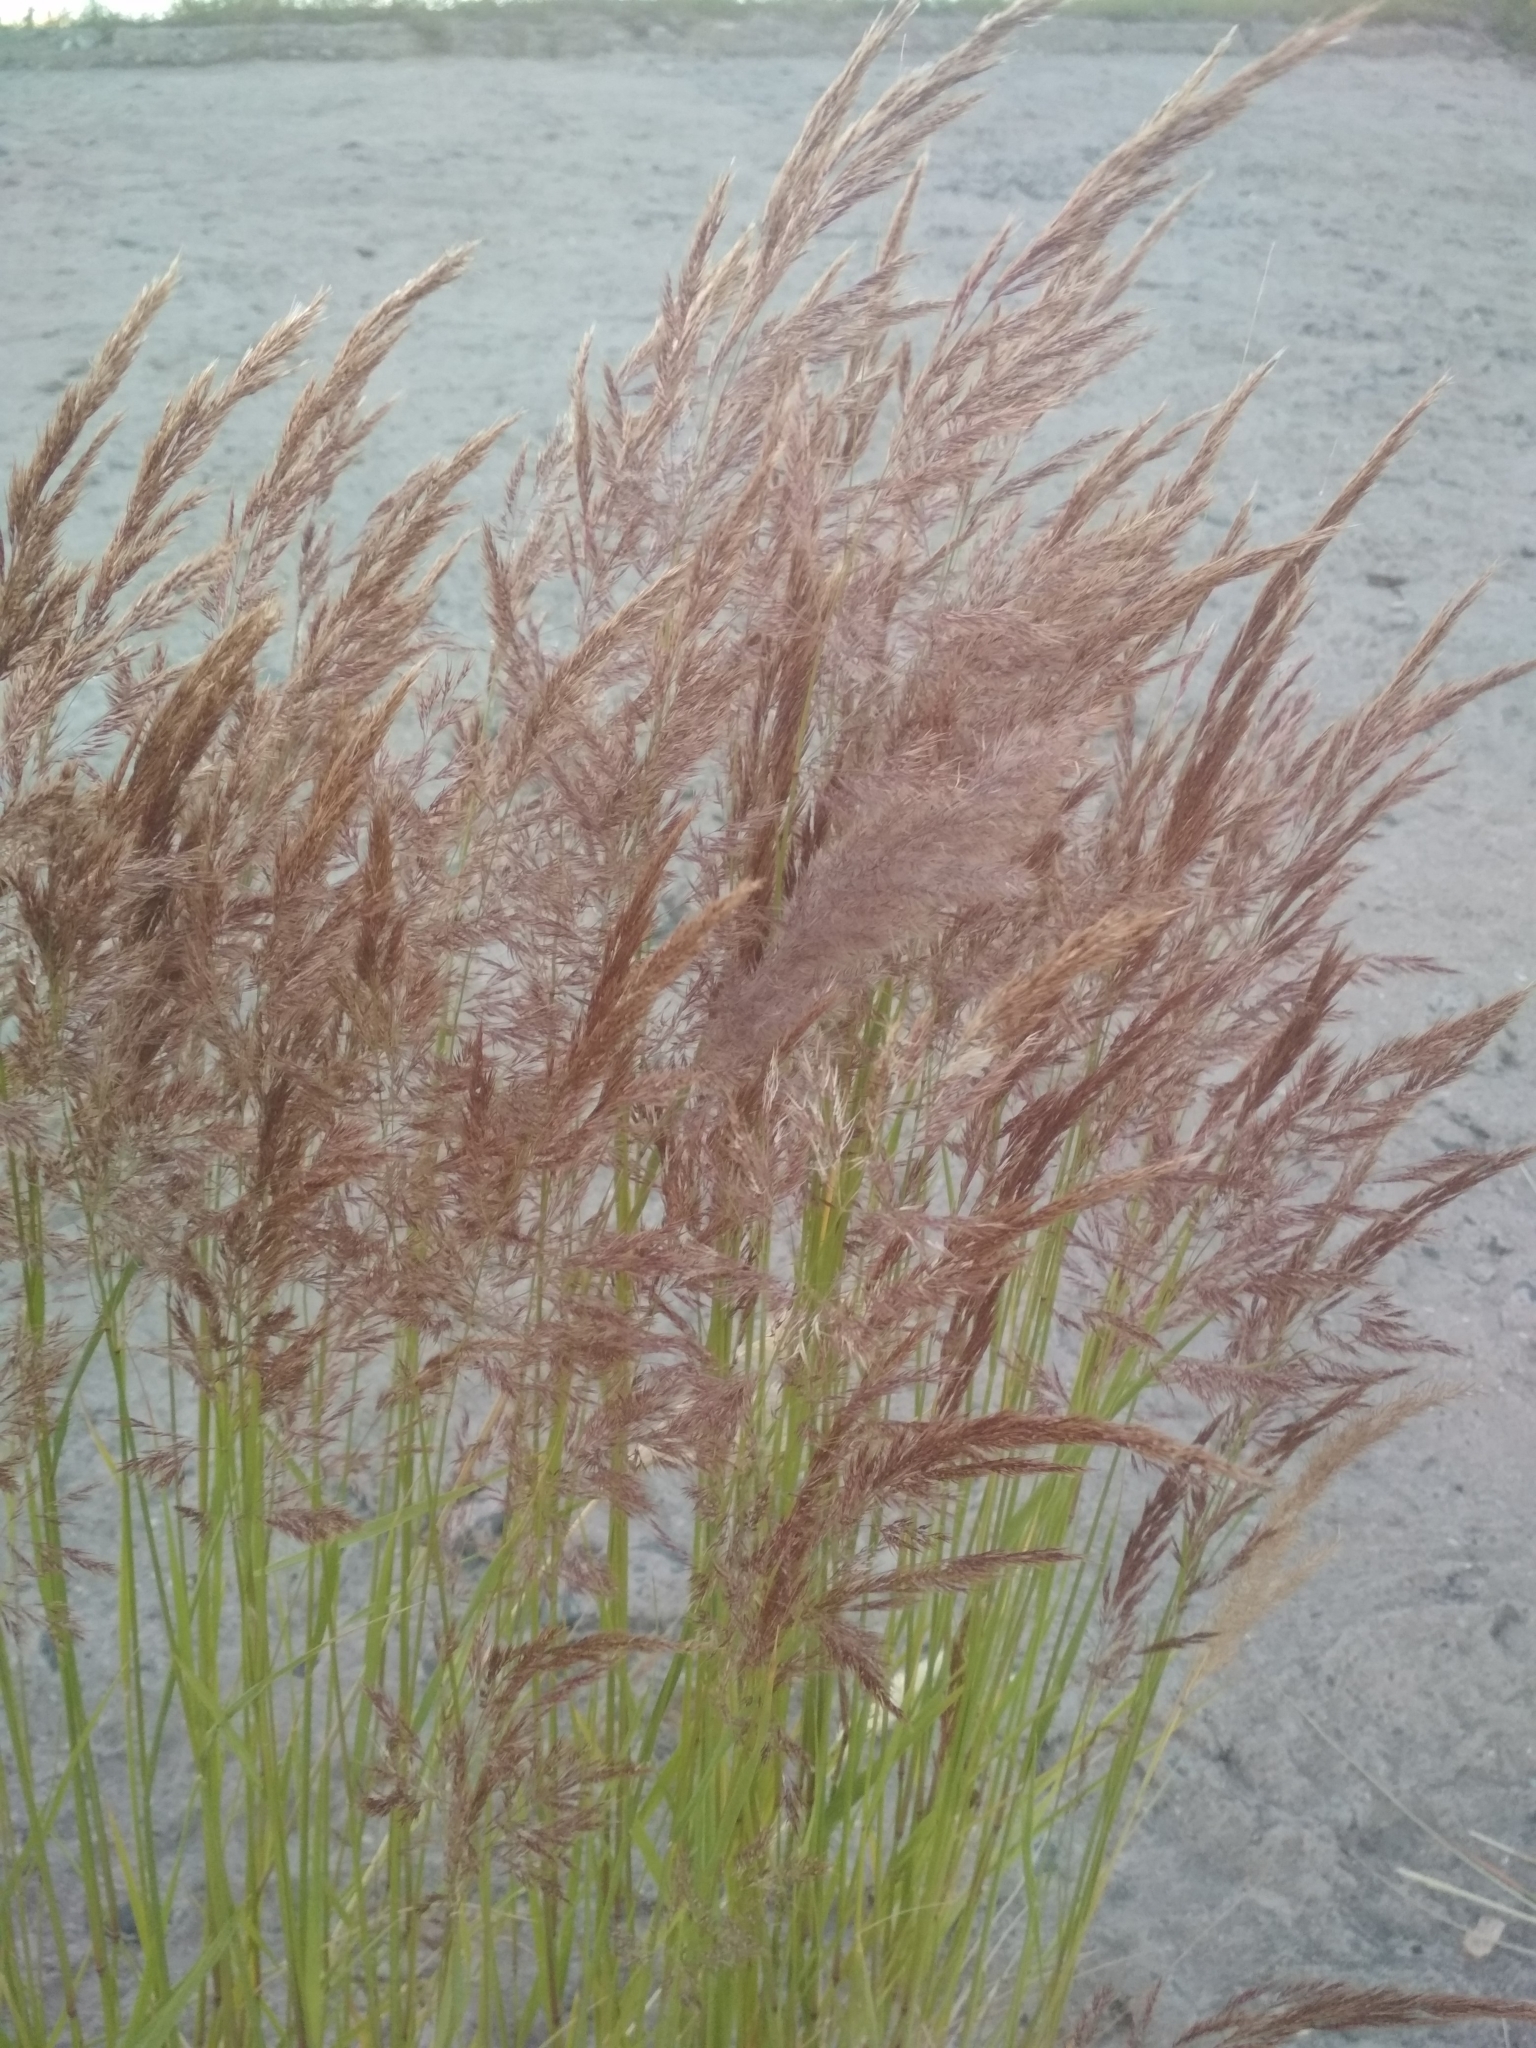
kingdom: Plantae
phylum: Tracheophyta
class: Liliopsida
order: Poales
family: Poaceae
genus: Calamagrostis
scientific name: Calamagrostis epigejos
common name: Wood small-reed
